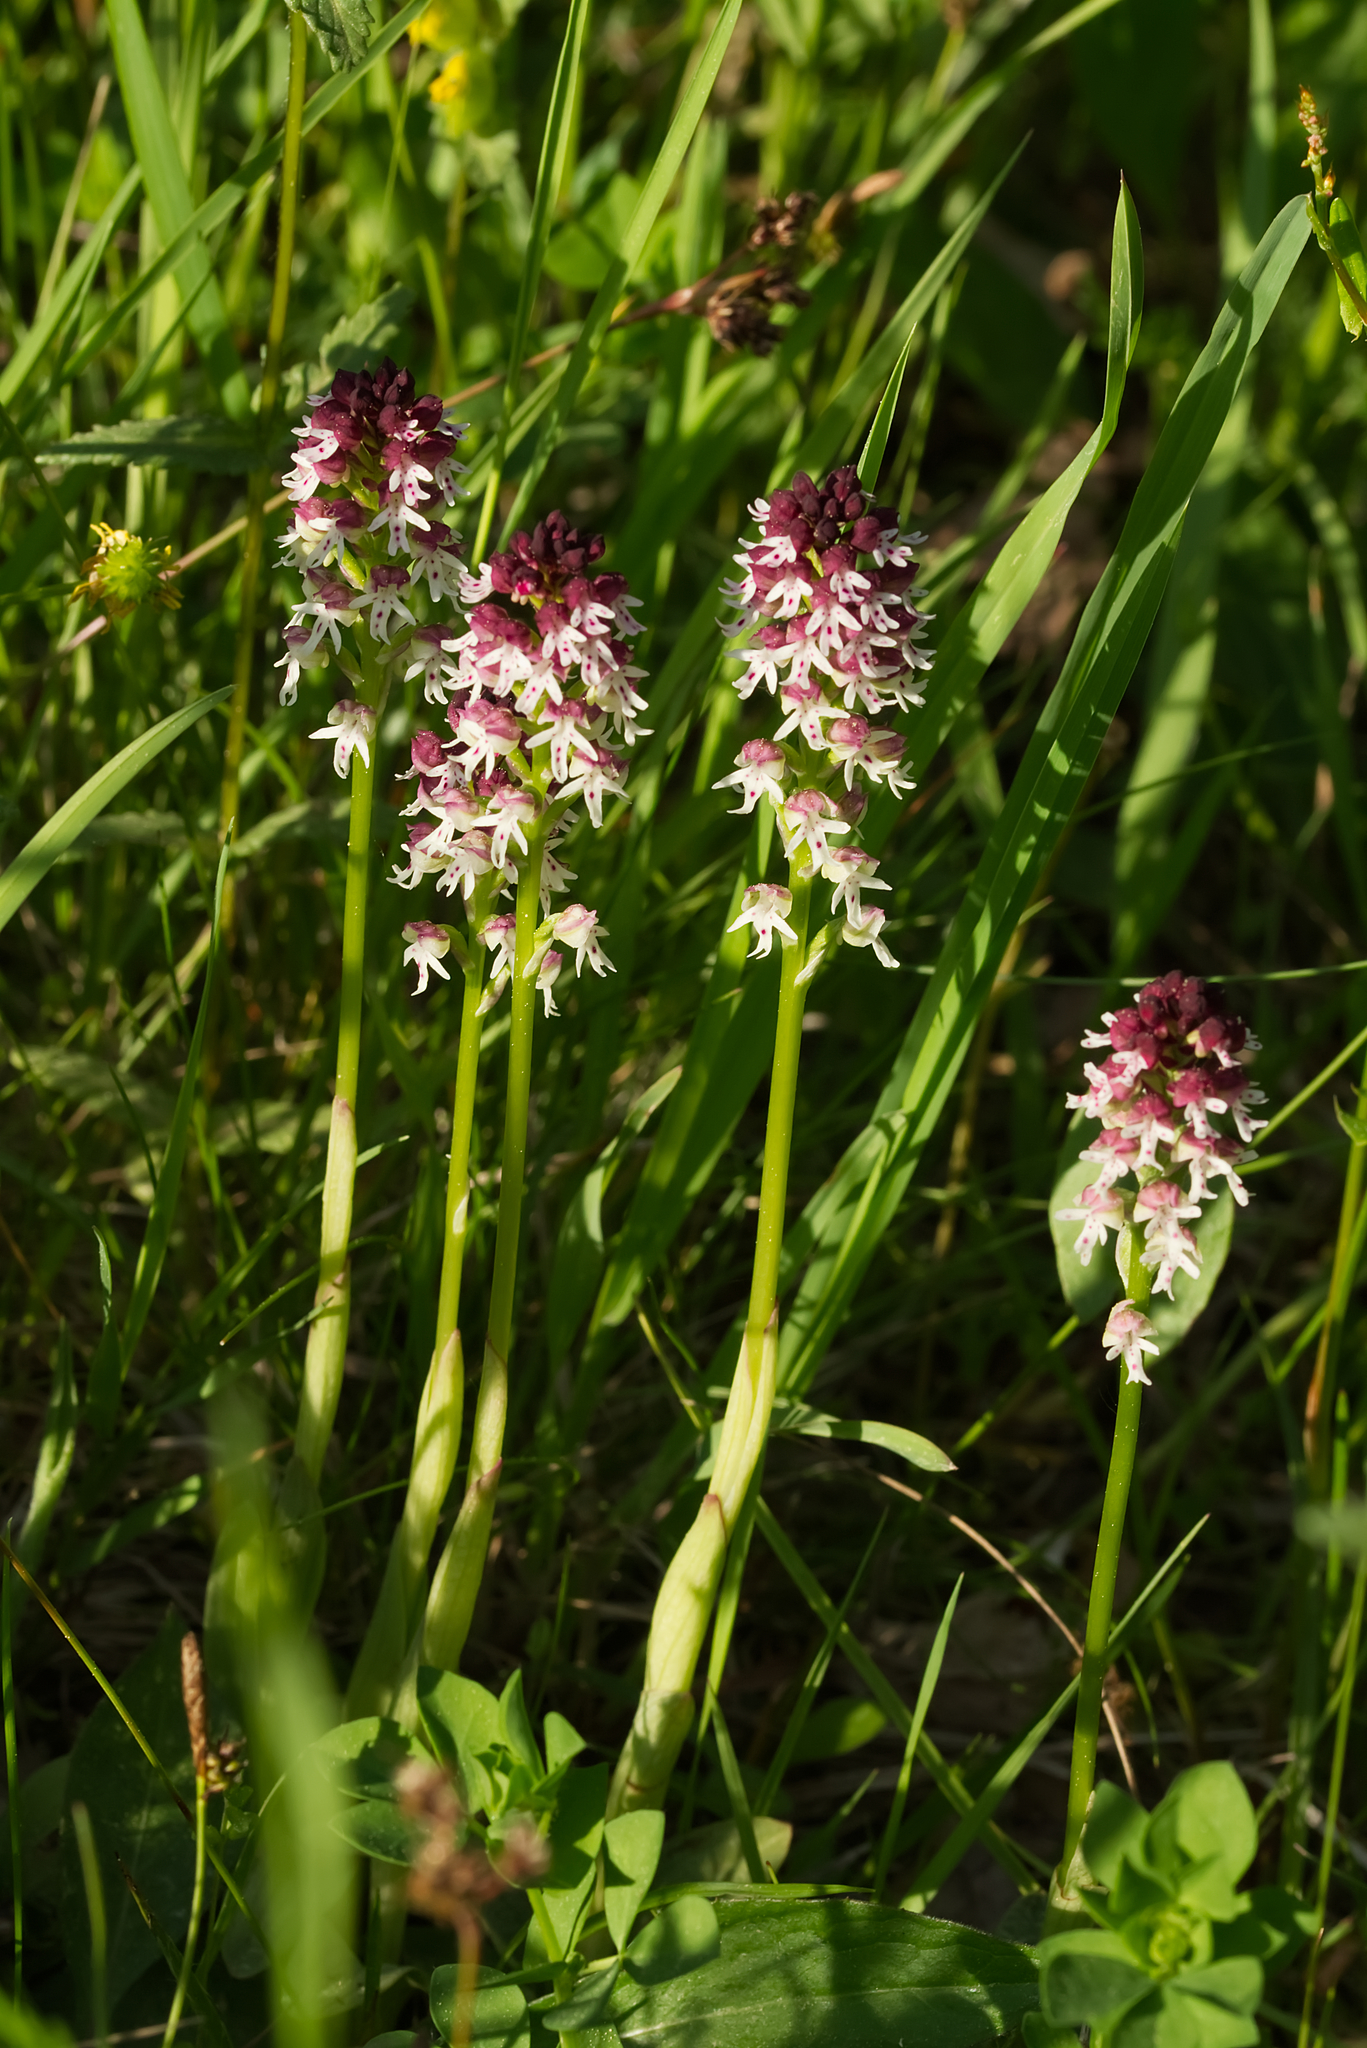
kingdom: Plantae
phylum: Tracheophyta
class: Liliopsida
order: Asparagales
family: Orchidaceae
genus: Neotinea
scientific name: Neotinea ustulata
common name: Burnt orchid
